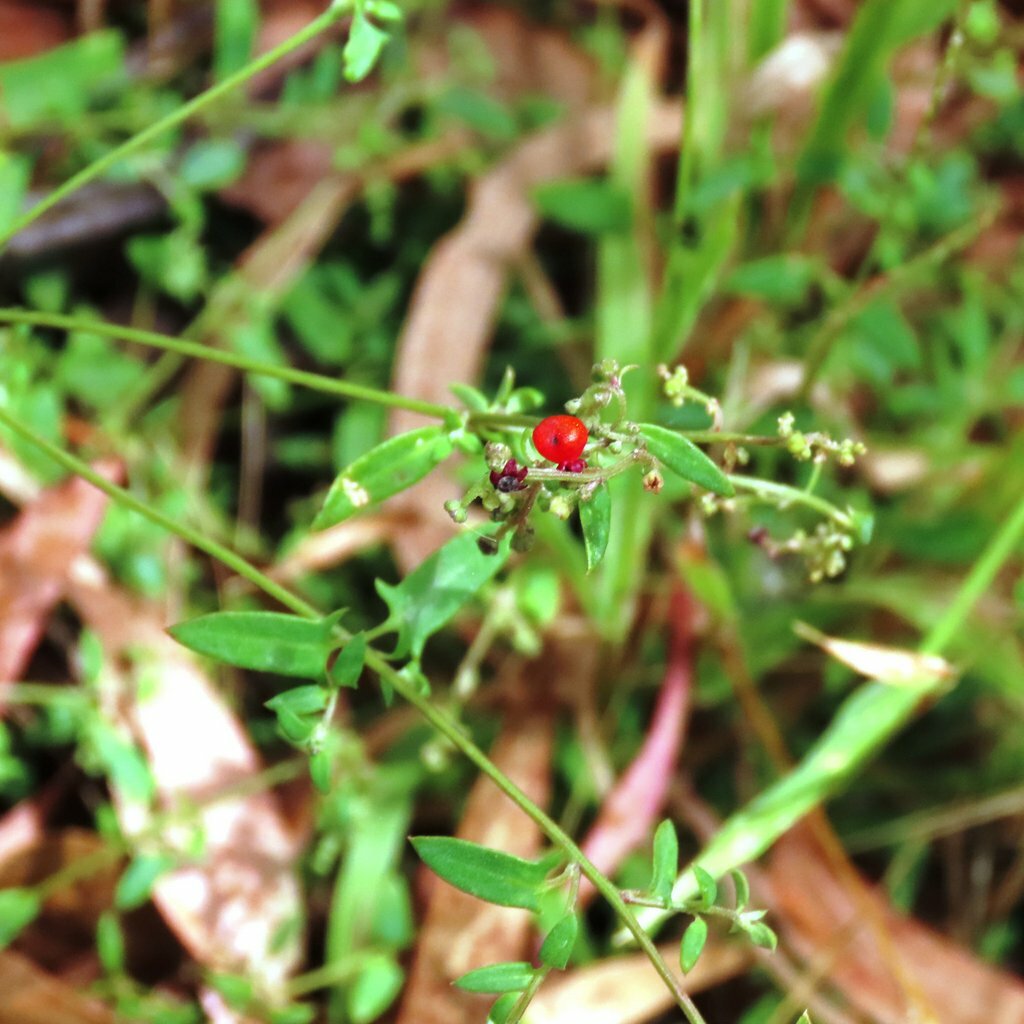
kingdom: Plantae
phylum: Tracheophyta
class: Magnoliopsida
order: Caryophyllales
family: Amaranthaceae
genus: Chenopodium
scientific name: Chenopodium nutans
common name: Climbing-saltbush
